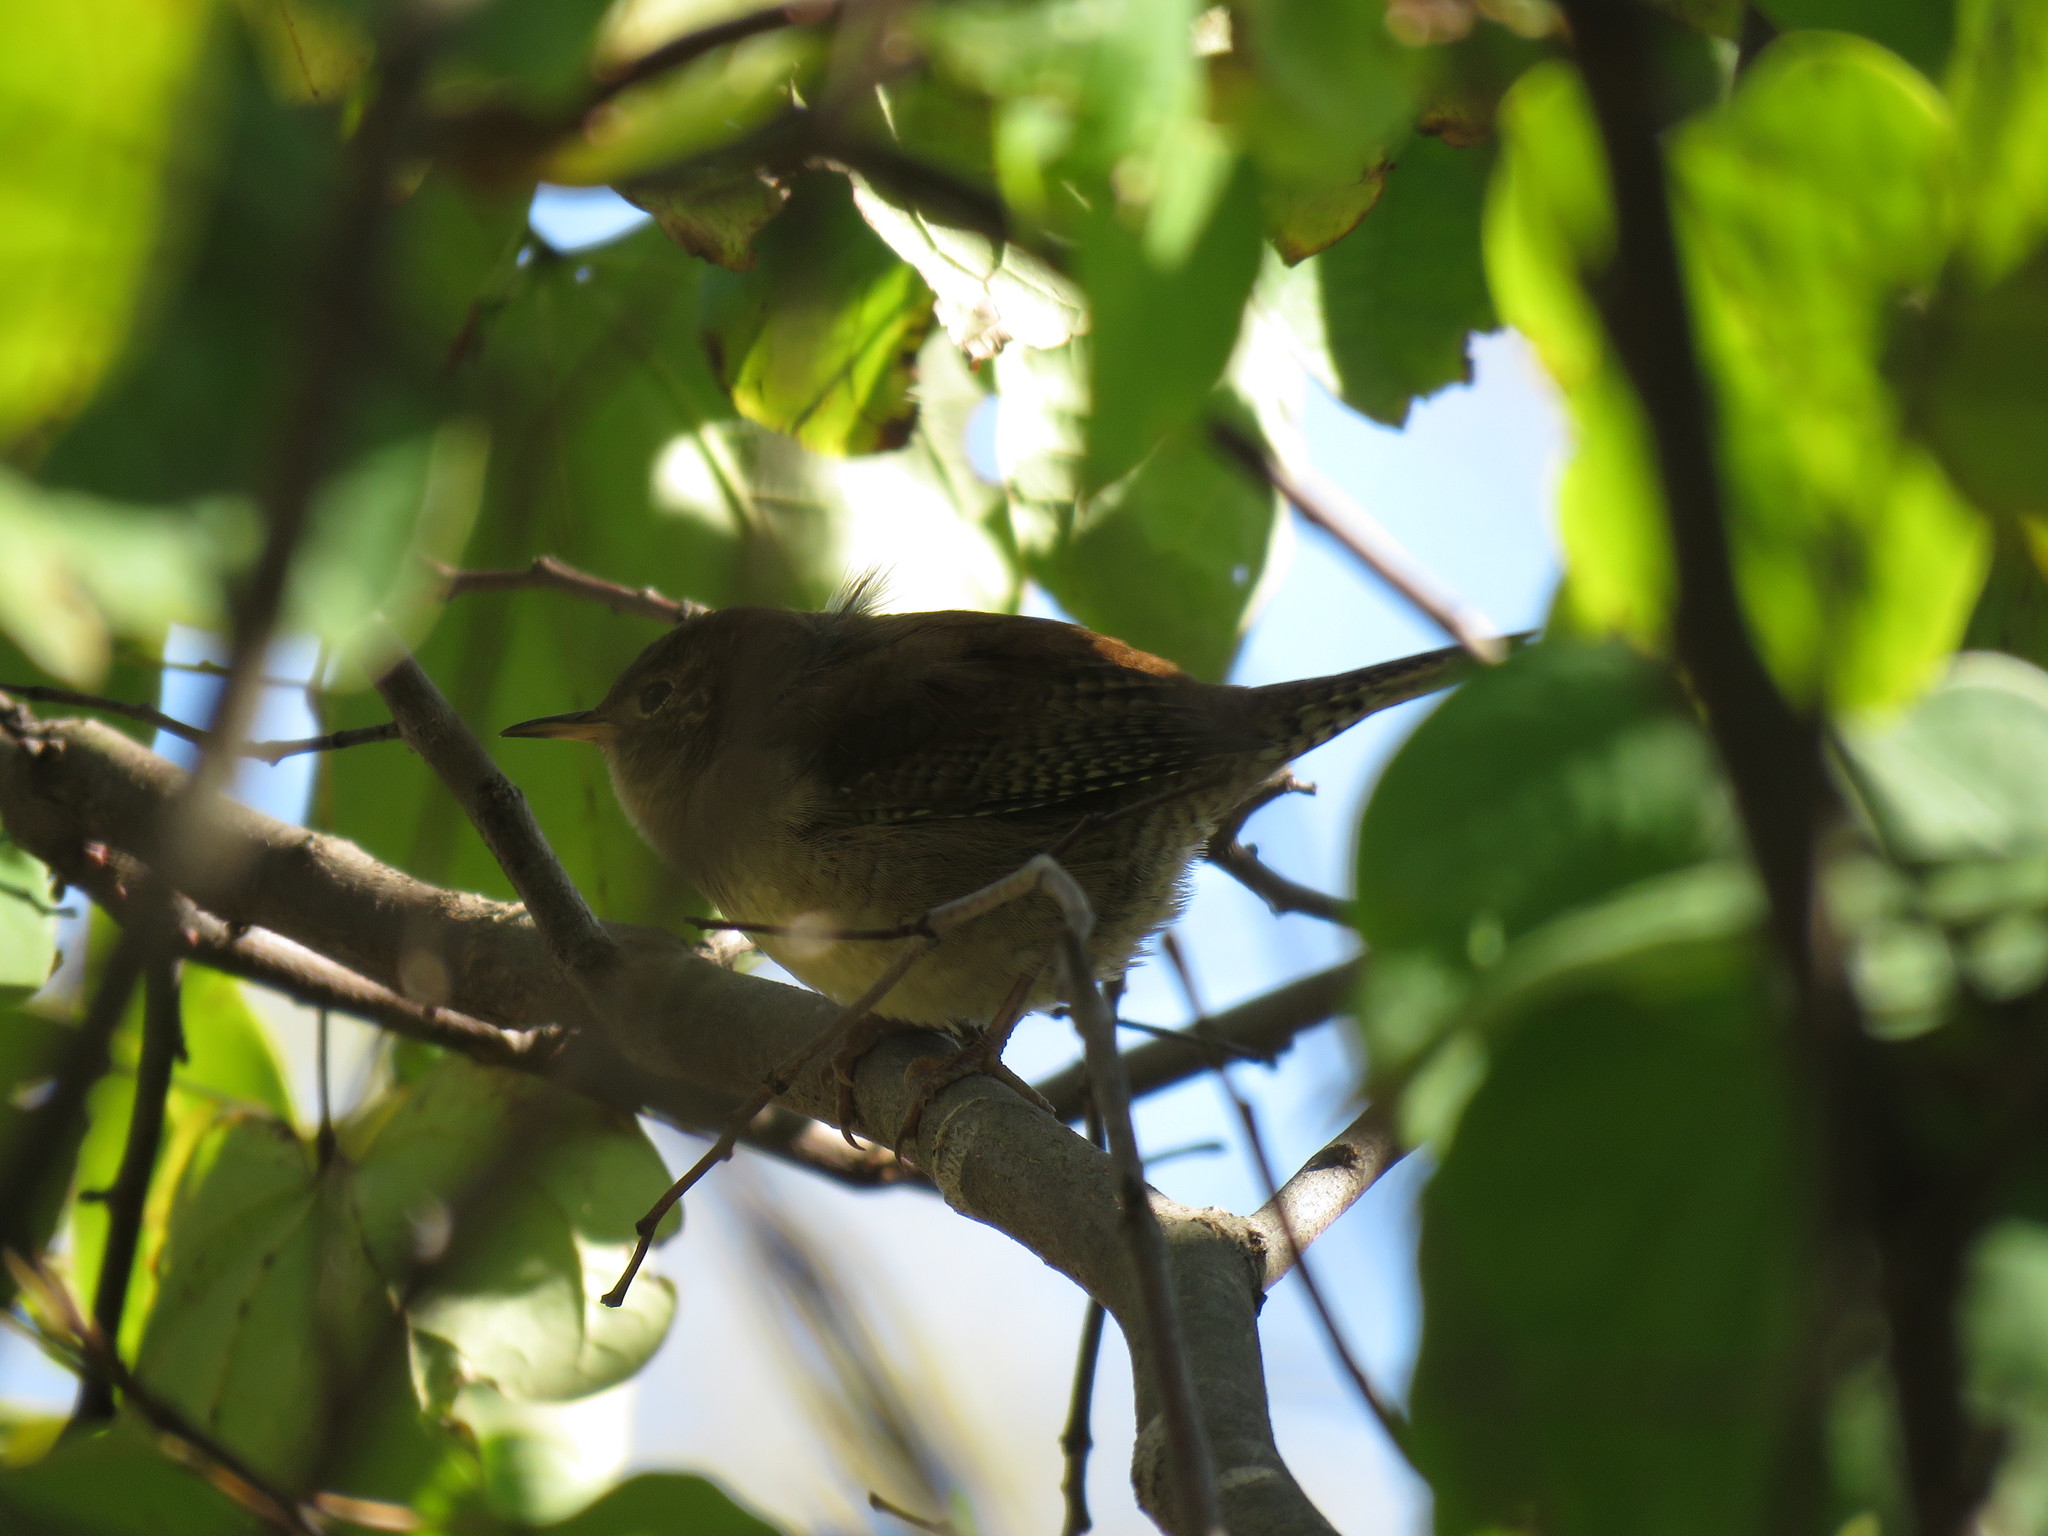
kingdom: Animalia
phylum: Chordata
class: Aves
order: Passeriformes
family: Troglodytidae
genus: Troglodytes
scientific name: Troglodytes aedon
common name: House wren
